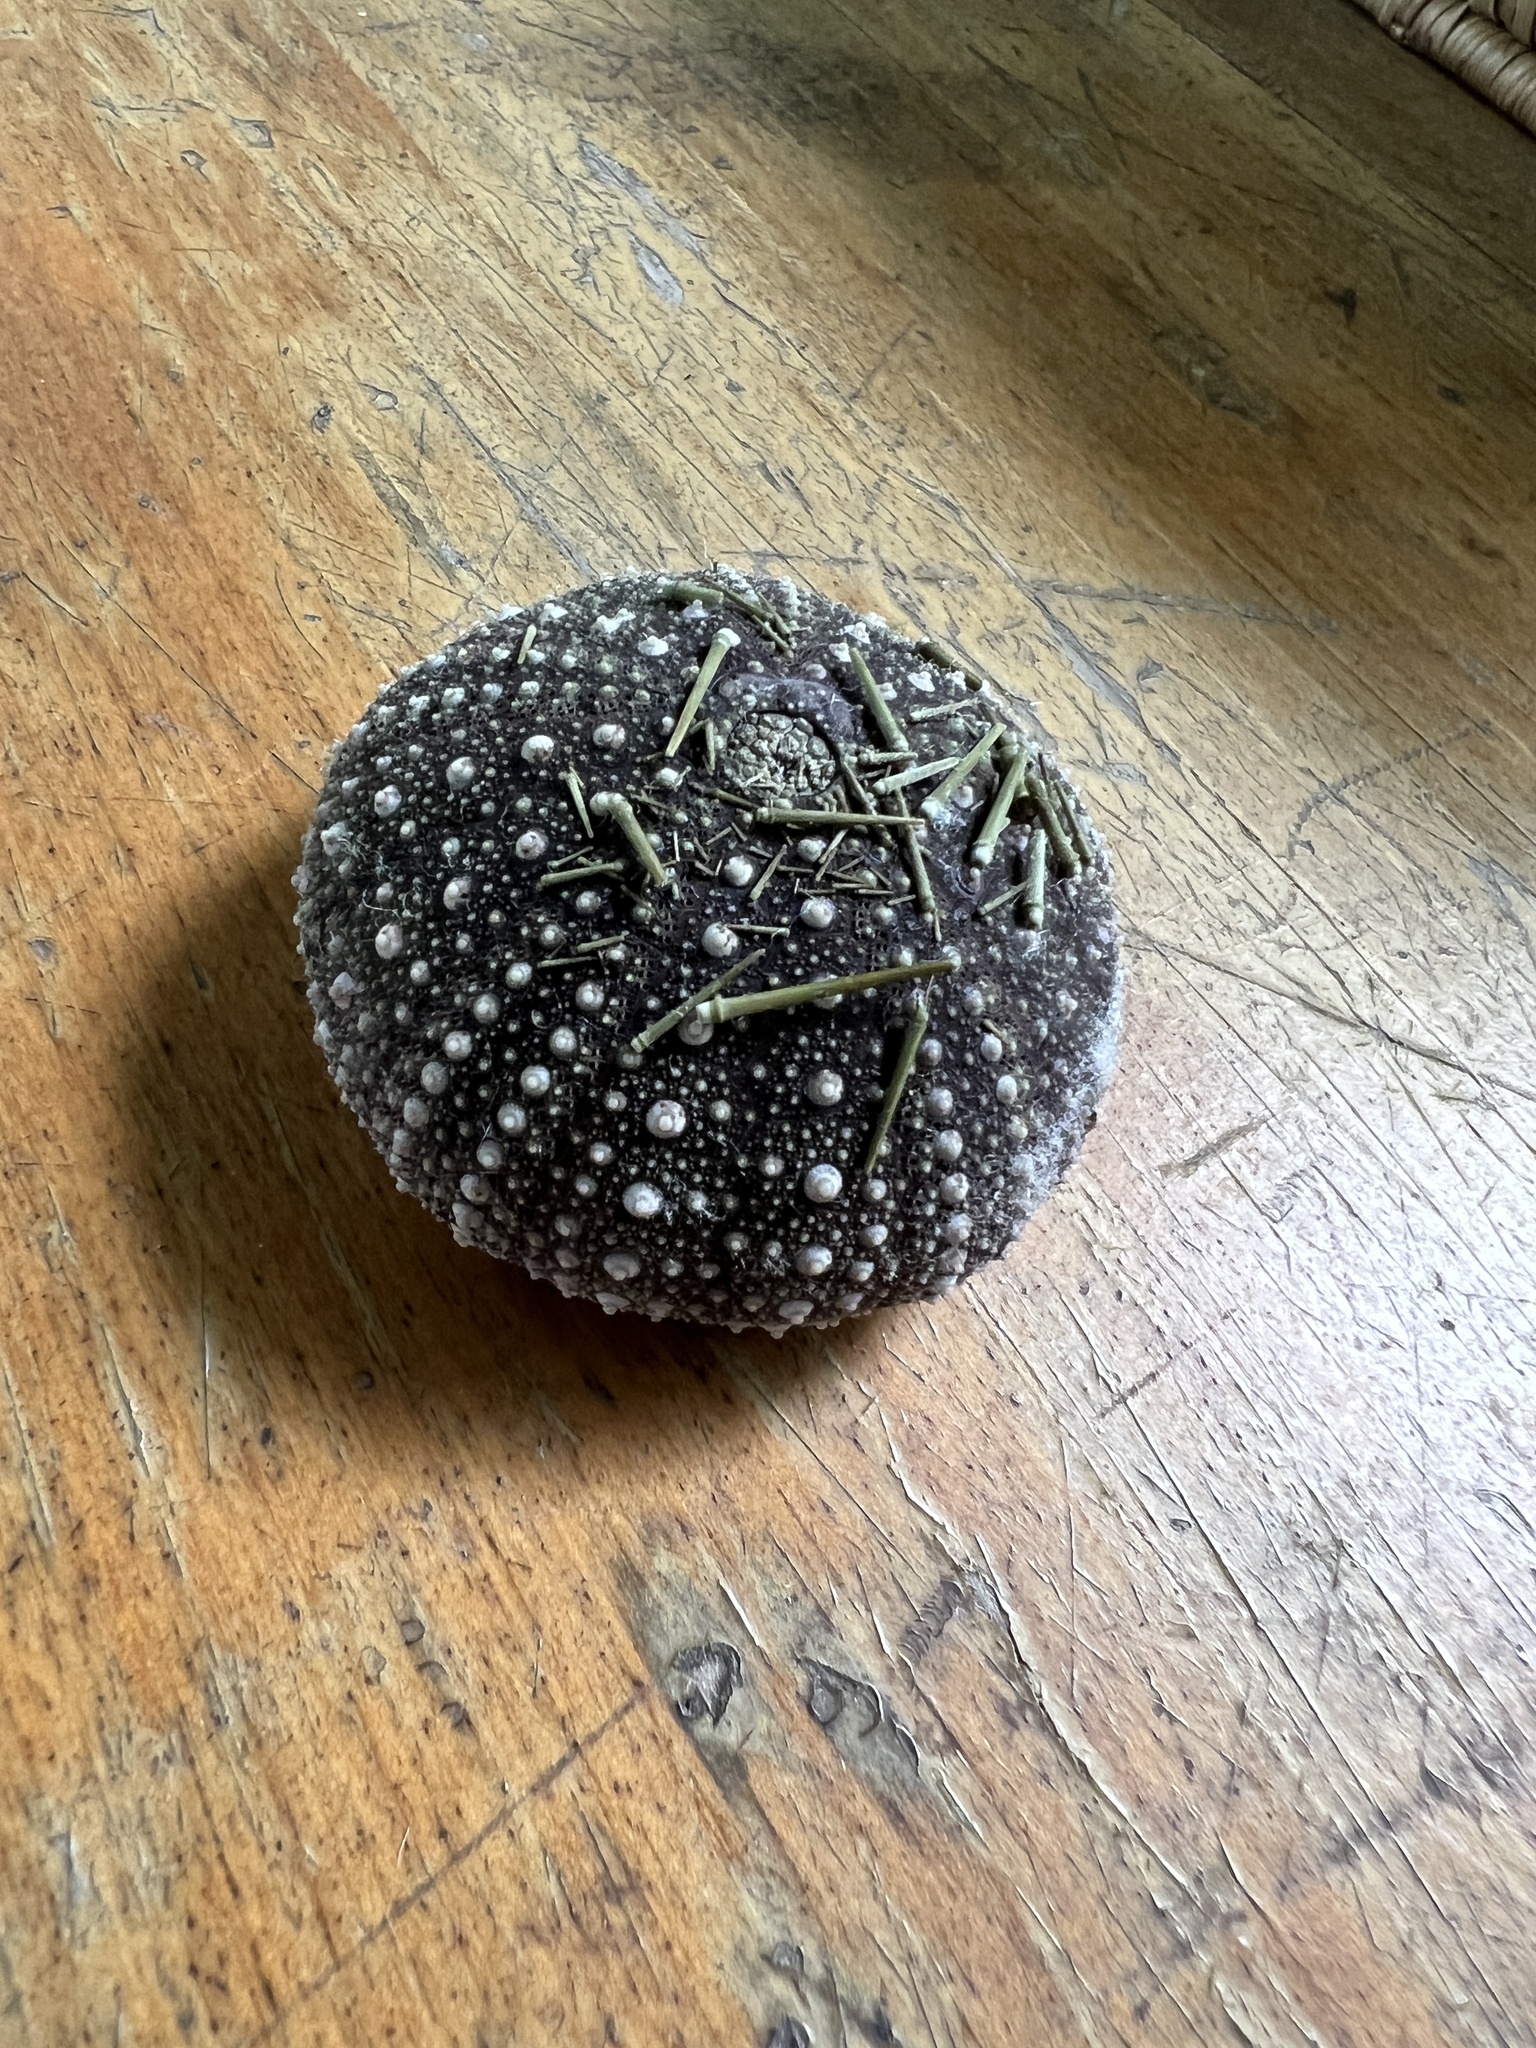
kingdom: Animalia
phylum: Echinodermata
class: Echinoidea
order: Camarodonta
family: Strongylocentrotidae
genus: Strongylocentrotus
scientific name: Strongylocentrotus droebachiensis
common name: Northern sea urchin
